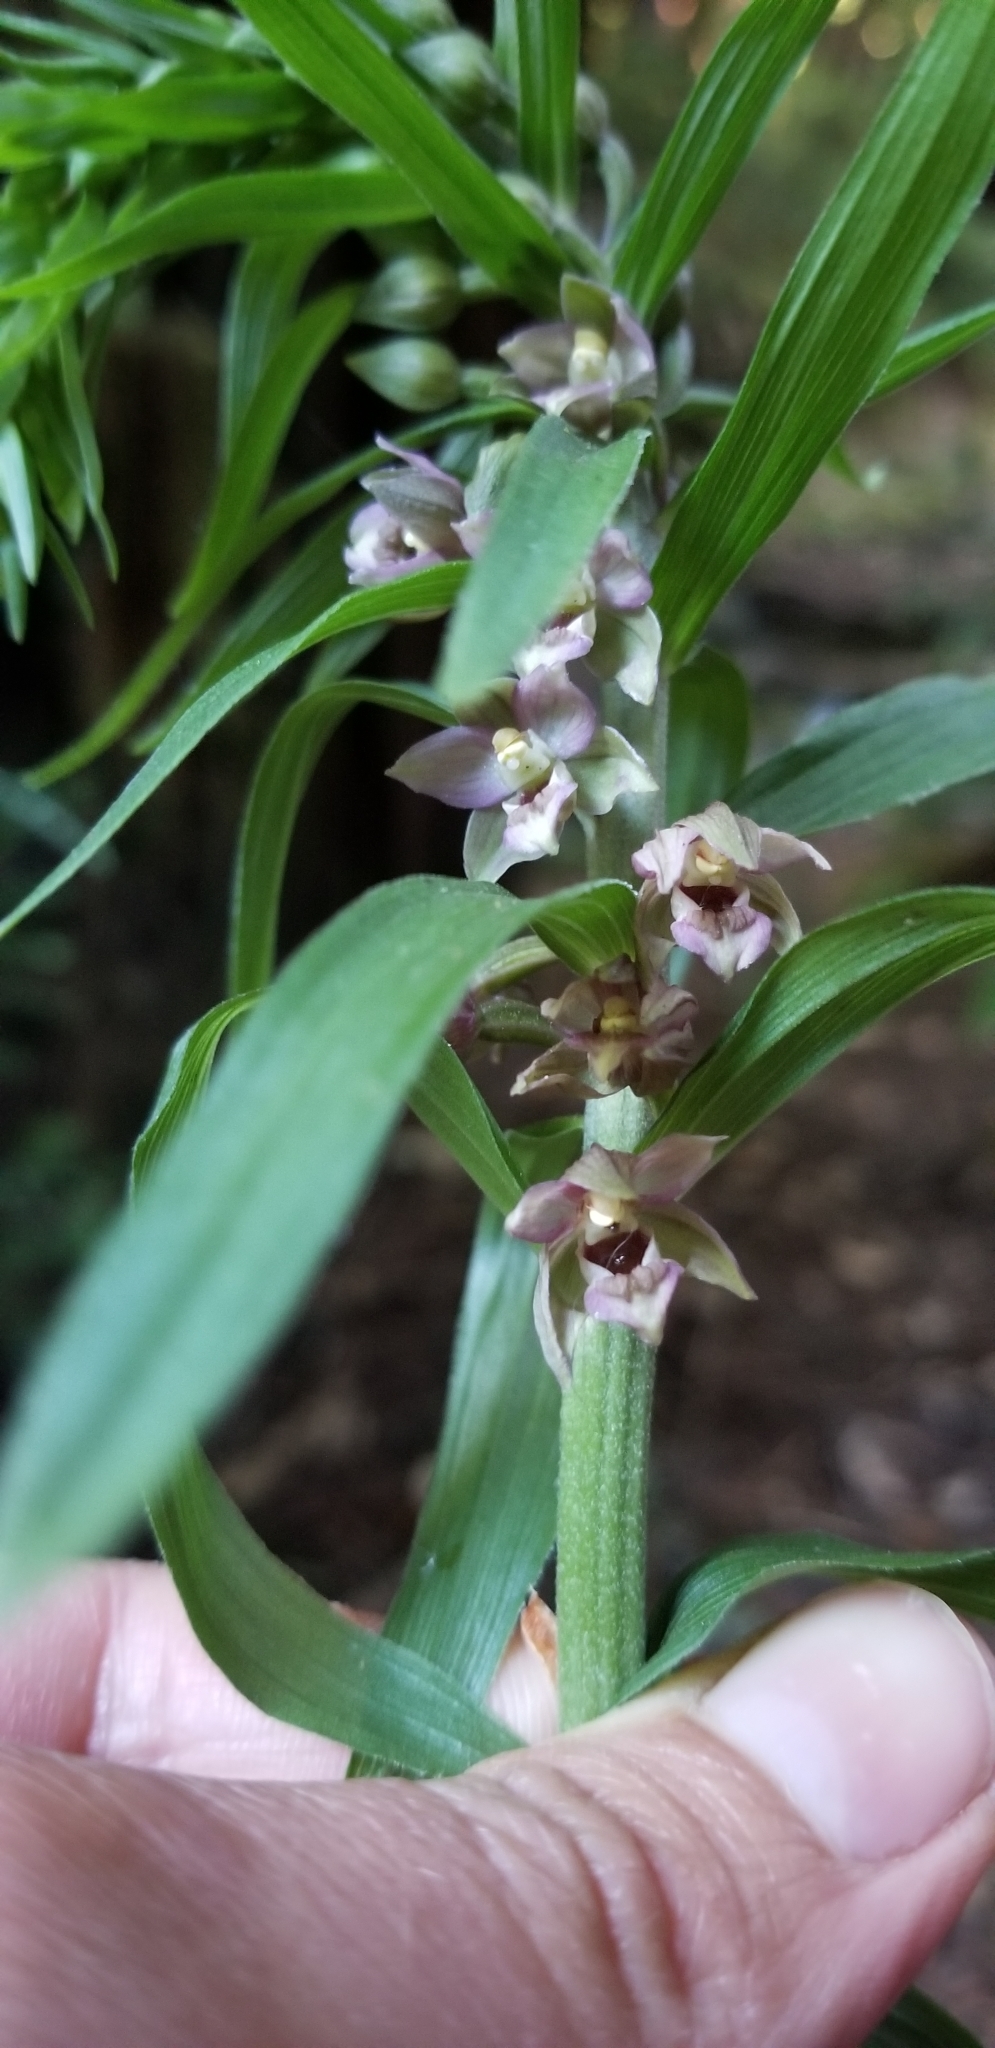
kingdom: Plantae
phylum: Tracheophyta
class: Liliopsida
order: Asparagales
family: Orchidaceae
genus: Epipactis
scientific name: Epipactis helleborine
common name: Broad-leaved helleborine
